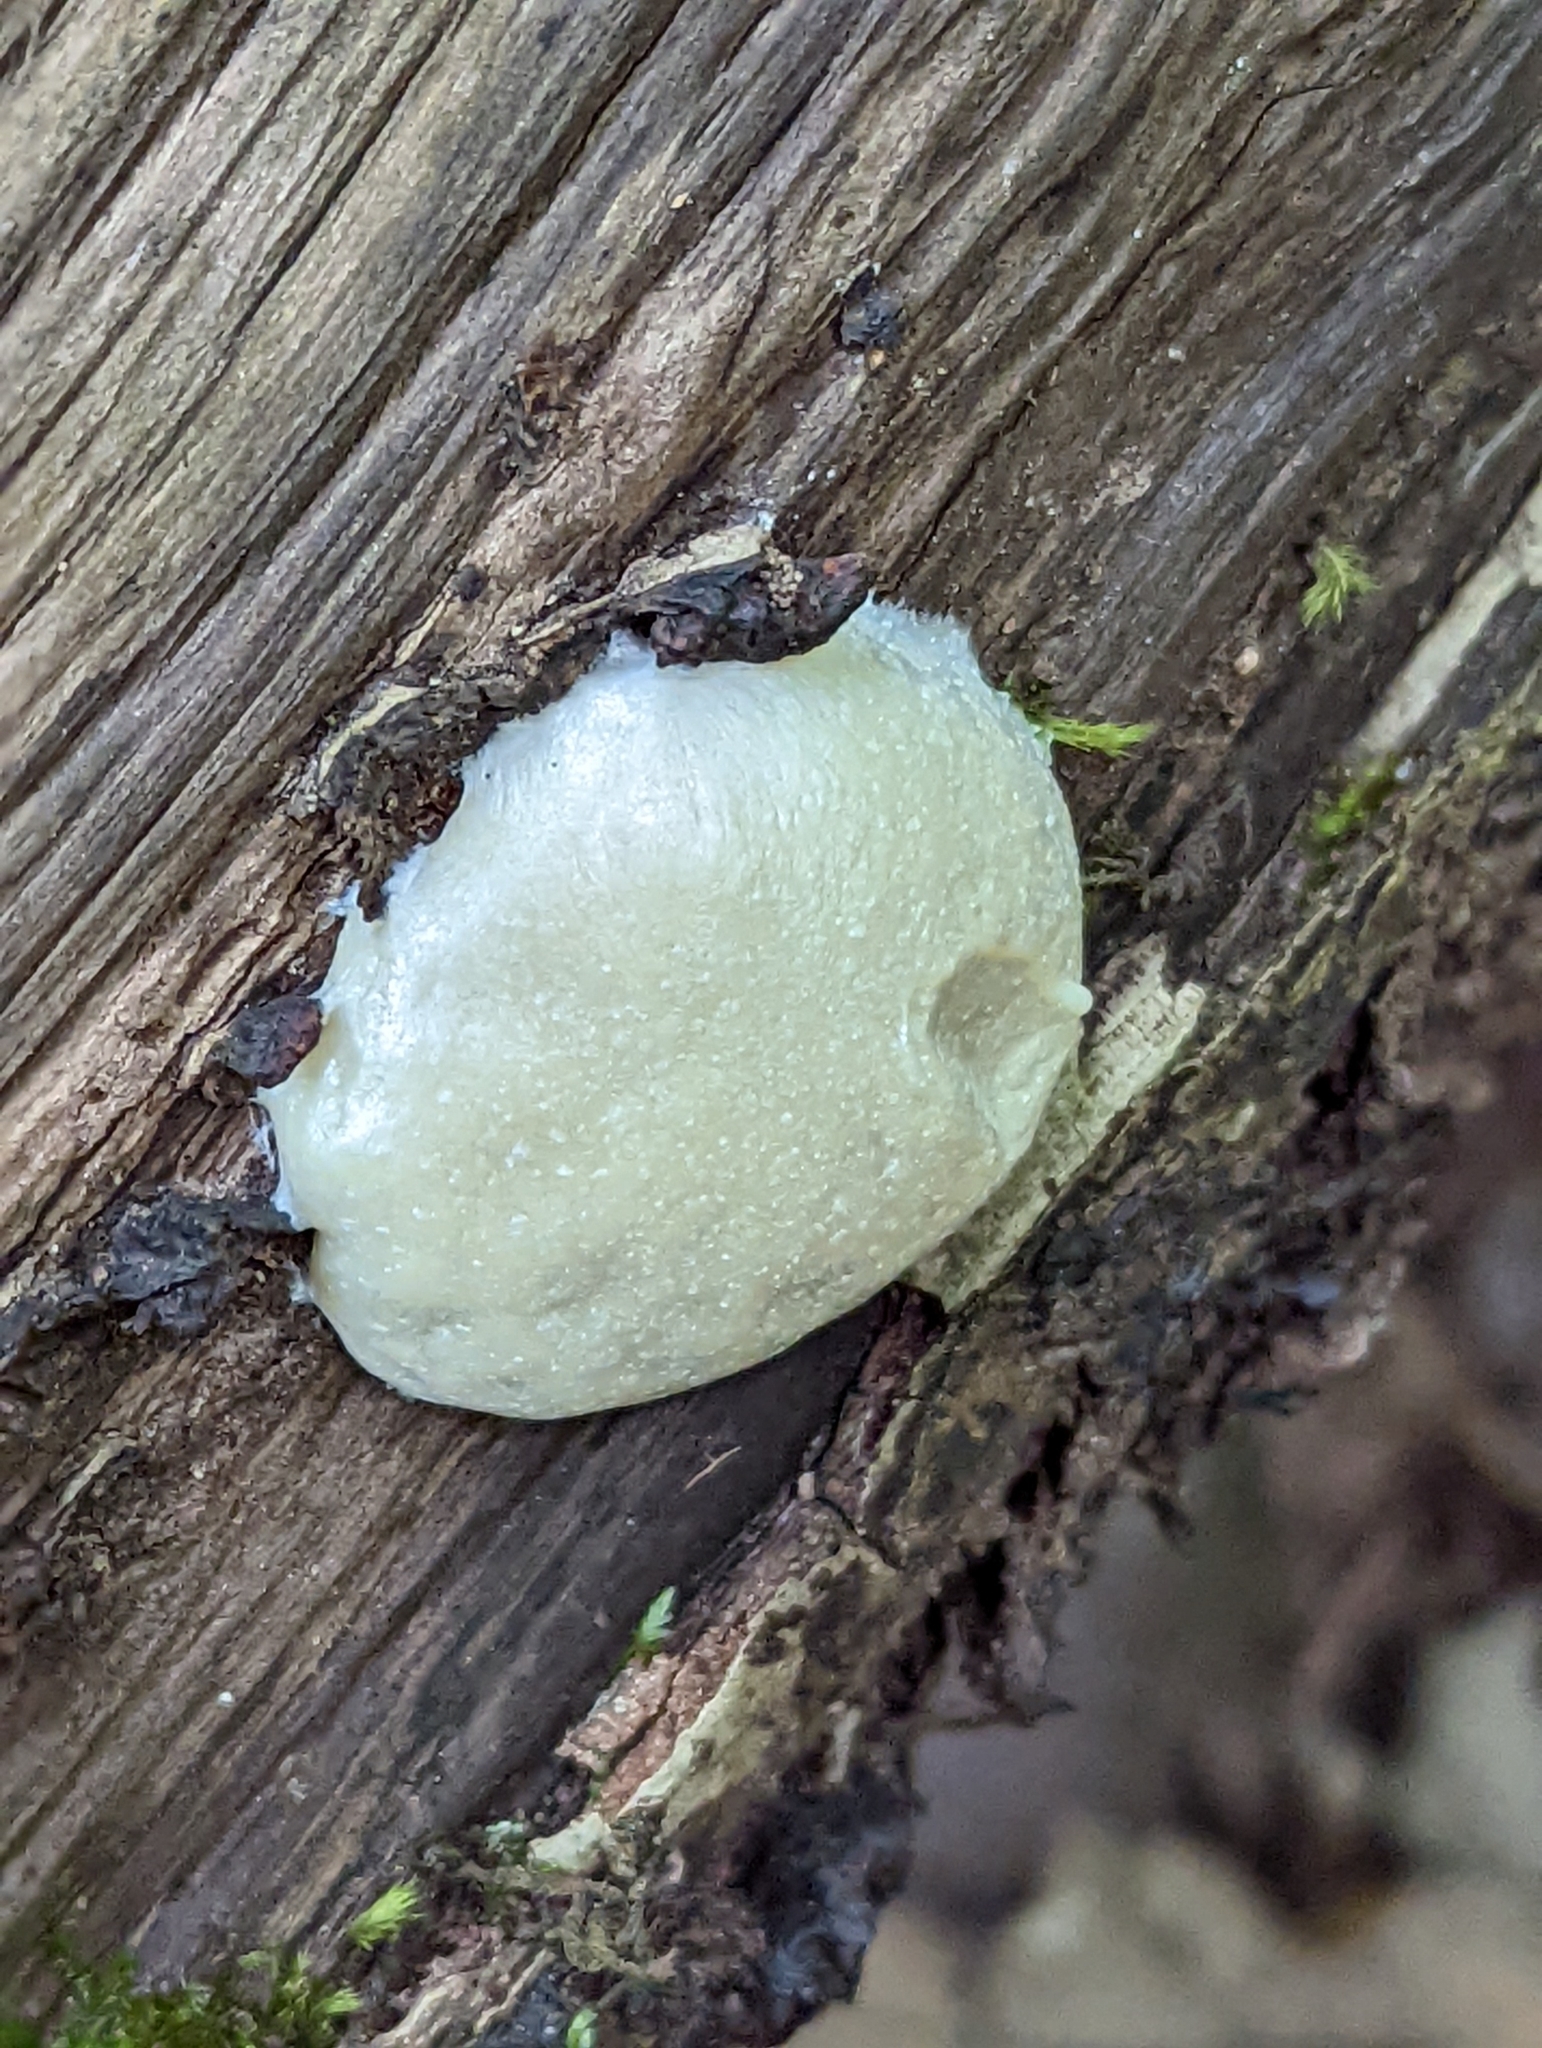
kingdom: Protozoa
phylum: Mycetozoa
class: Myxomycetes
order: Cribrariales
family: Tubiferaceae
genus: Reticularia
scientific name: Reticularia lycoperdon
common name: False puffball
